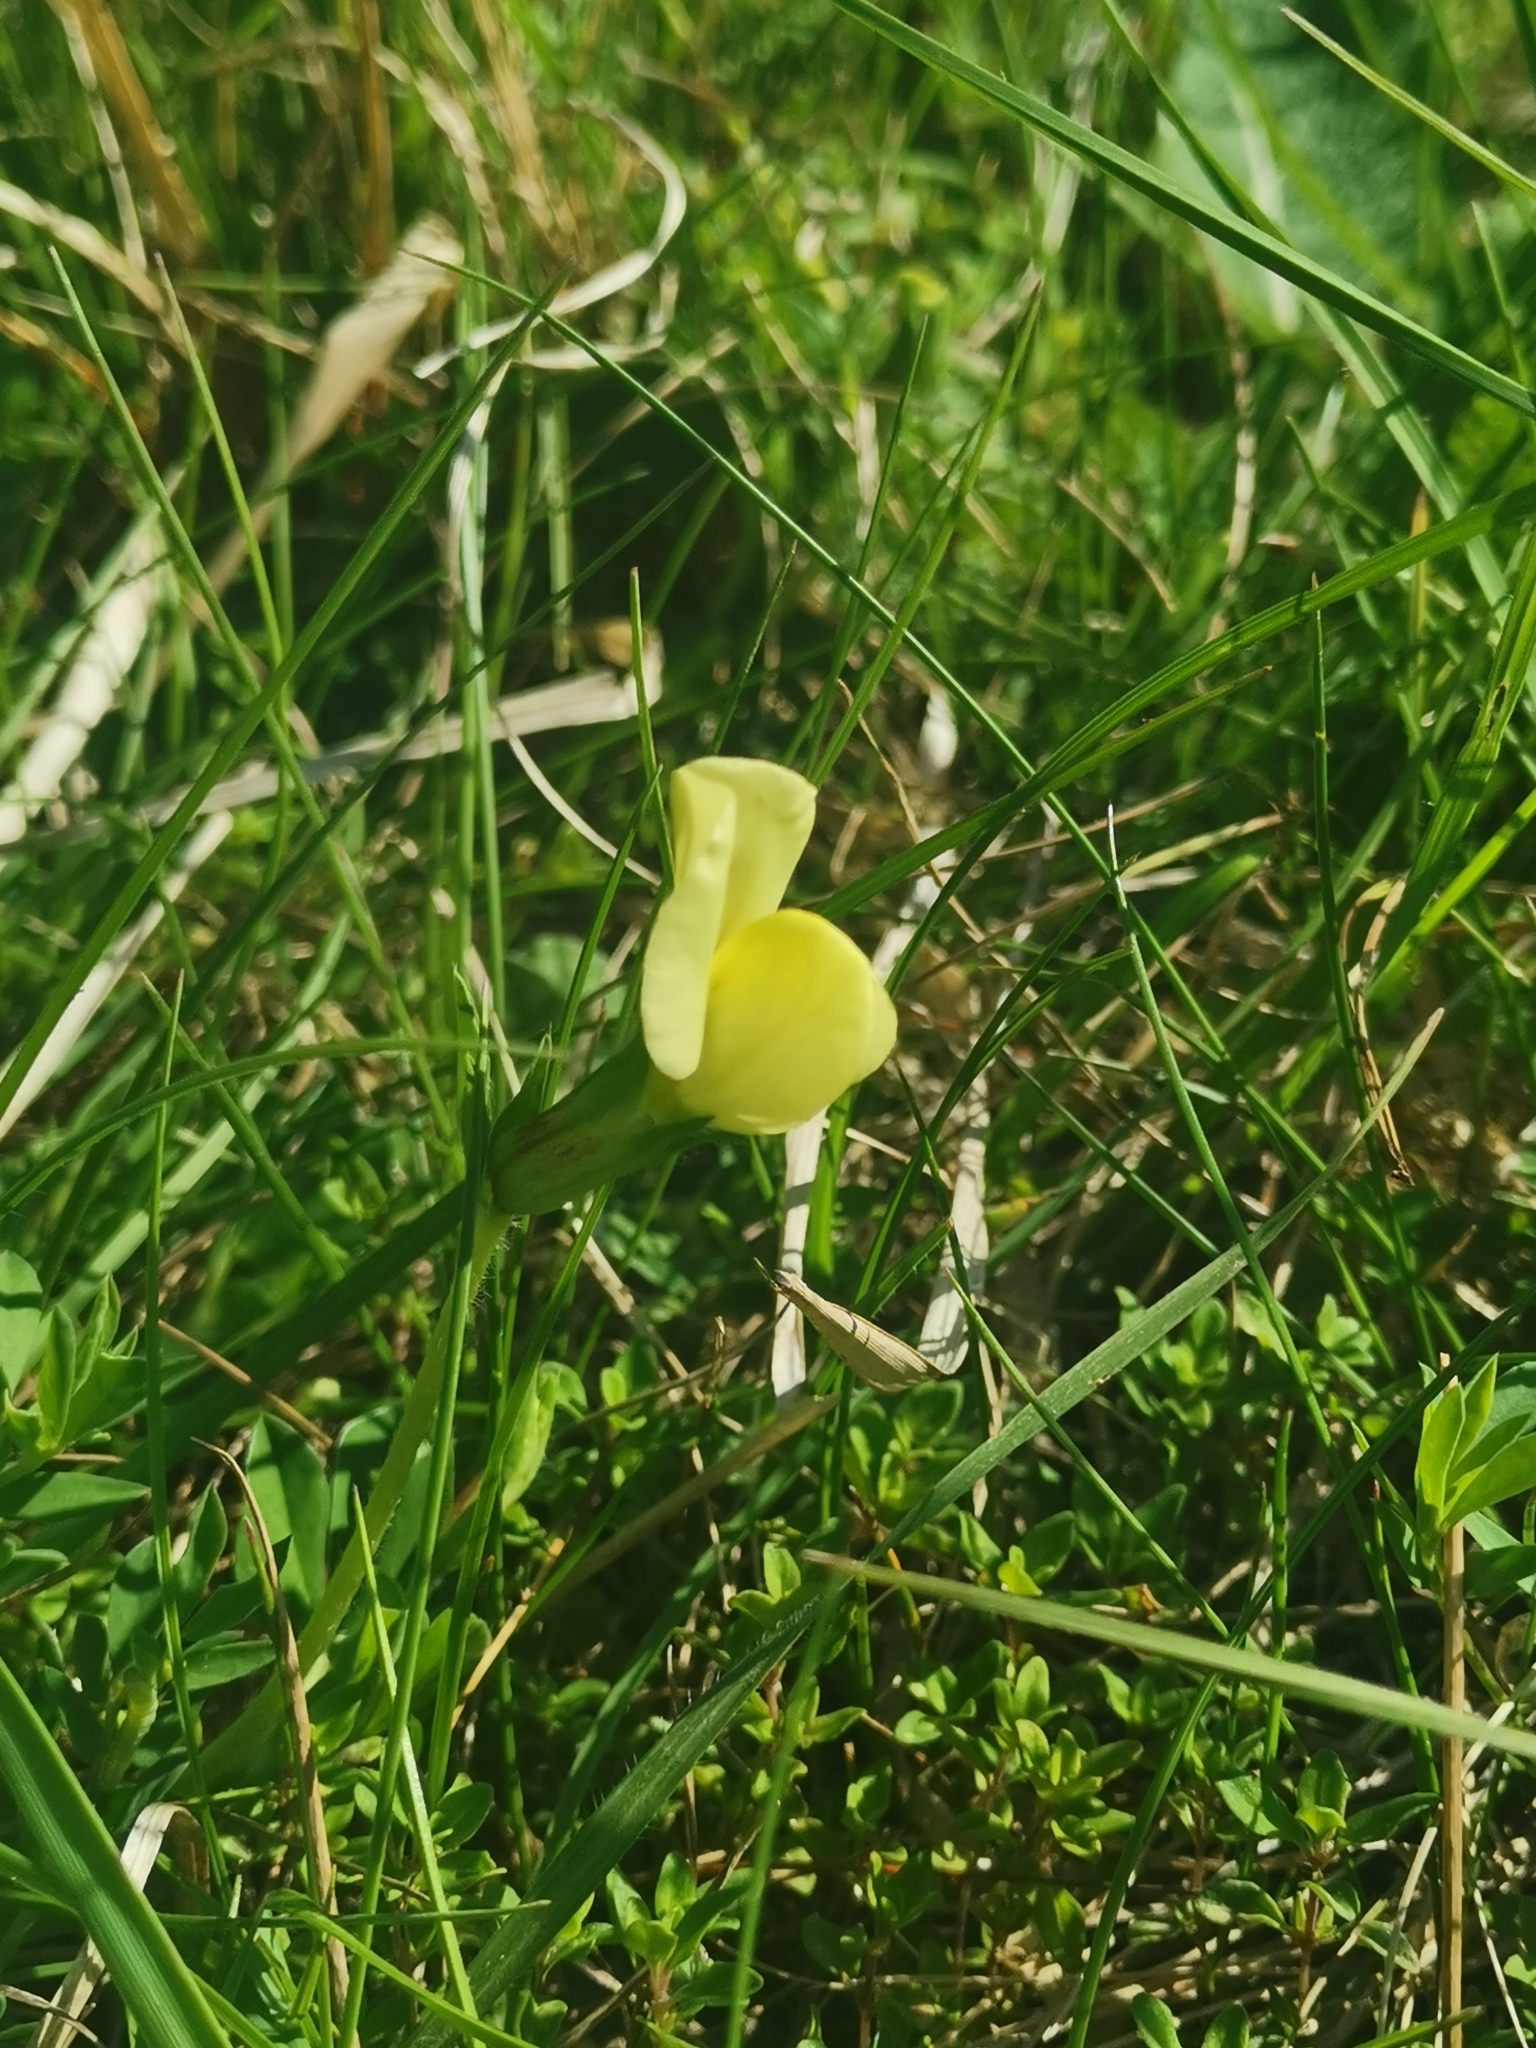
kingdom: Plantae
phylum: Tracheophyta
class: Magnoliopsida
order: Fabales
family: Fabaceae
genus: Lotus
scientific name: Lotus maritimus
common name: Dragon's-teeth
